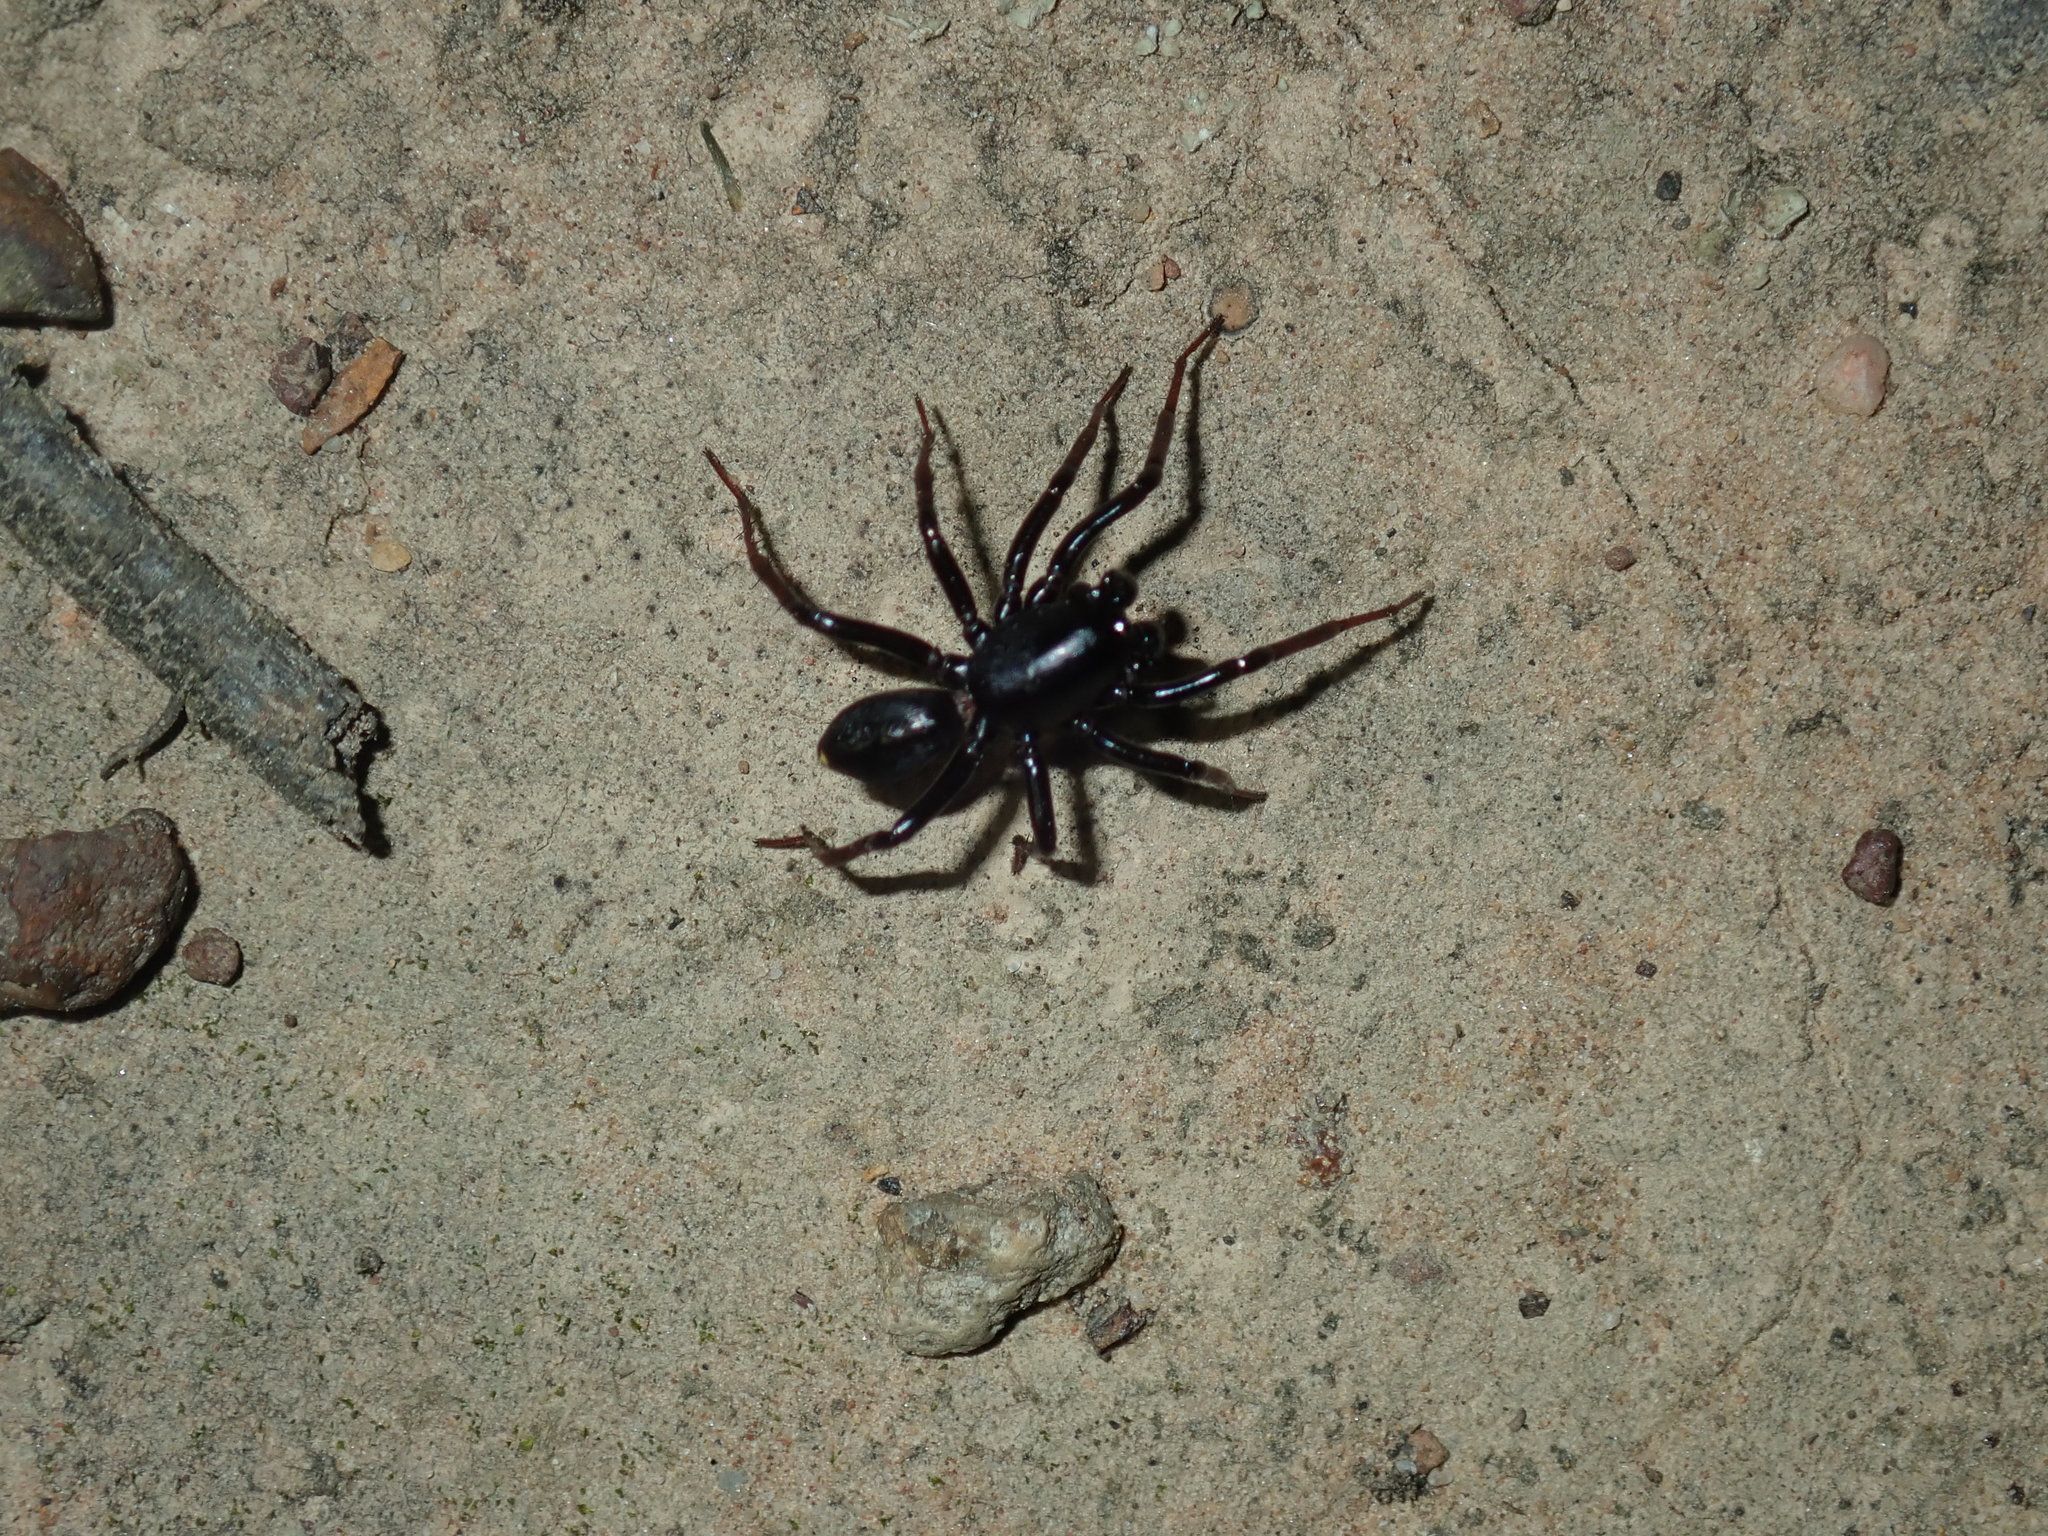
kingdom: Animalia
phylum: Arthropoda
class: Arachnida
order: Araneae
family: Zodariidae
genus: Storosa
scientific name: Storosa obscura
